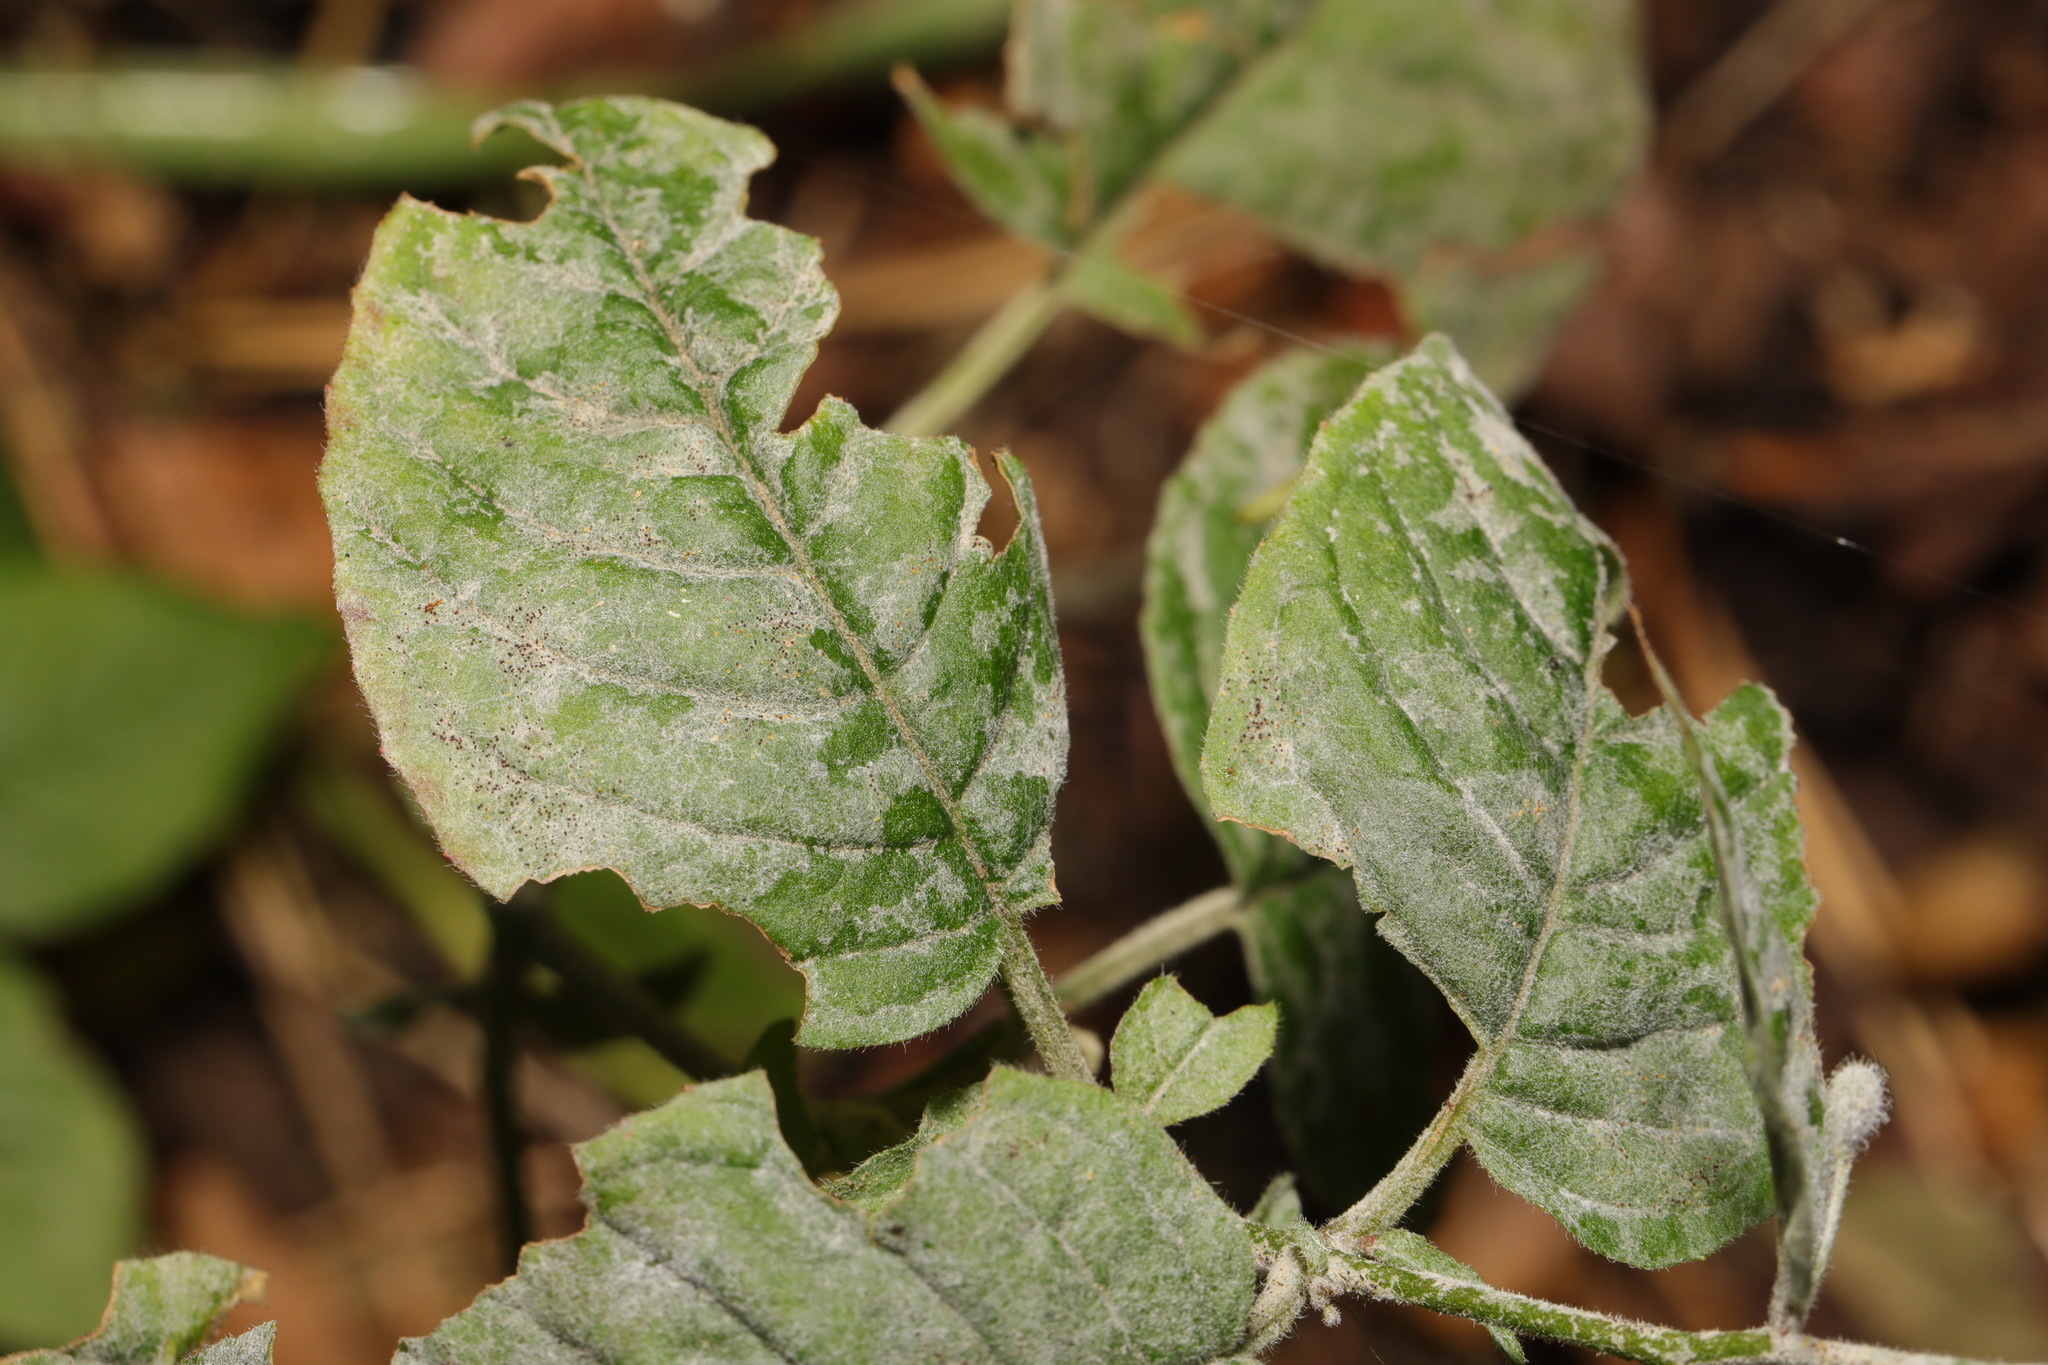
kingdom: Fungi
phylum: Ascomycota
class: Leotiomycetes
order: Helotiales
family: Erysiphaceae
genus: Erysiphe
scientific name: Erysiphe circaeae
